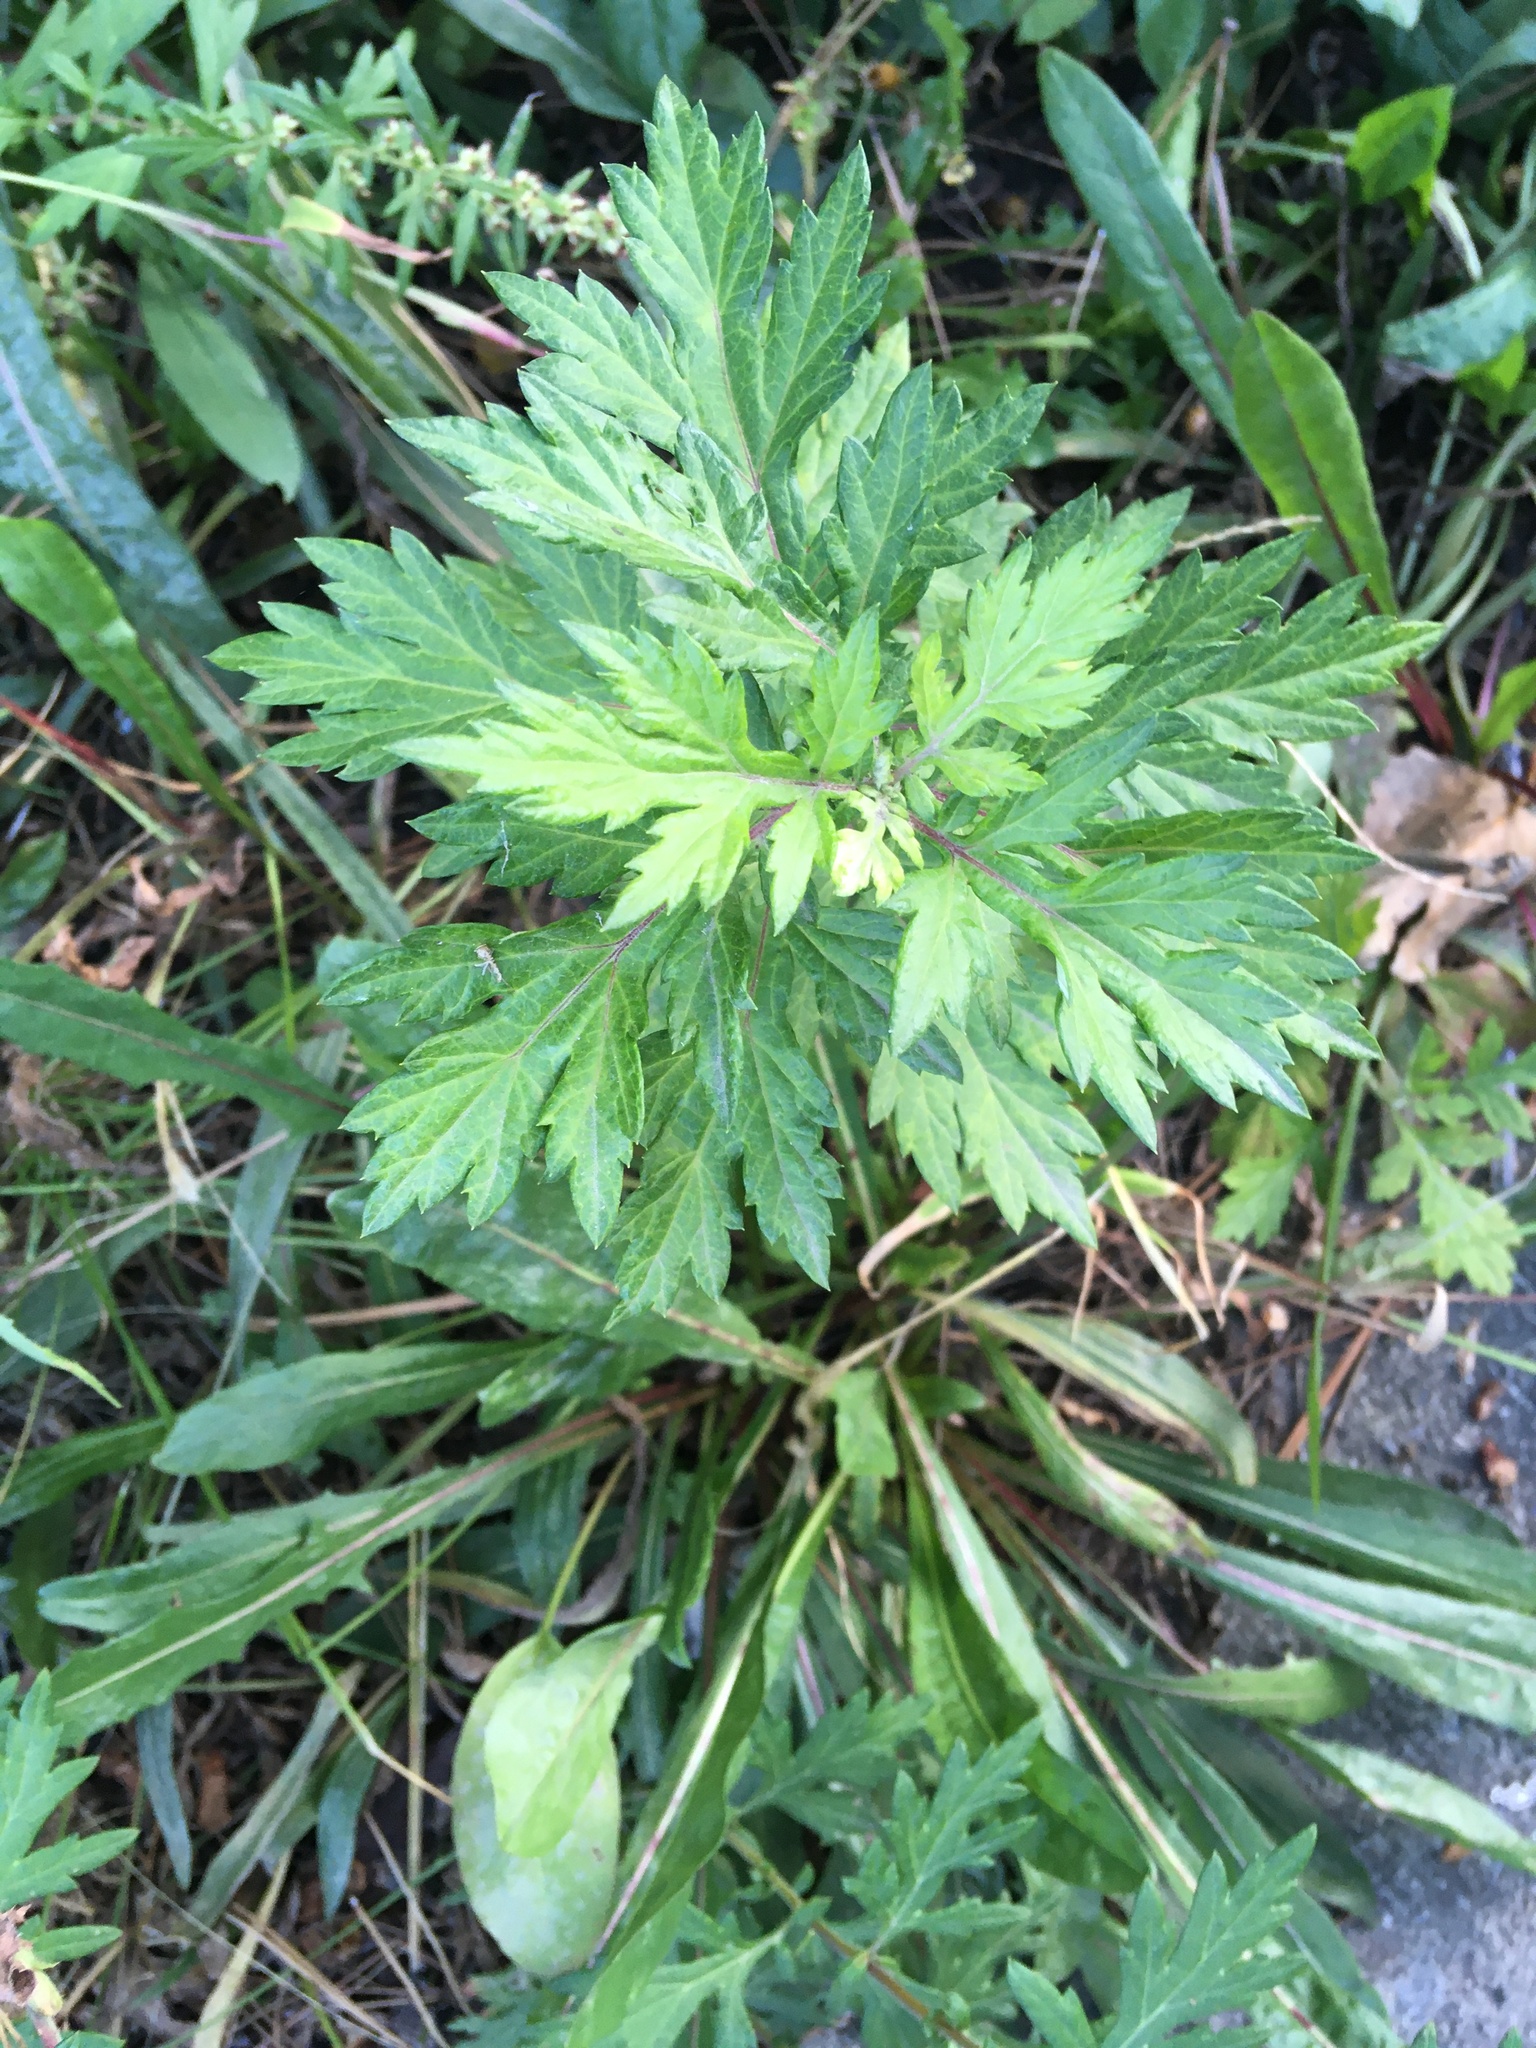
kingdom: Plantae
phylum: Tracheophyta
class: Magnoliopsida
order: Asterales
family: Asteraceae
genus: Artemisia
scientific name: Artemisia vulgaris
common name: Mugwort
